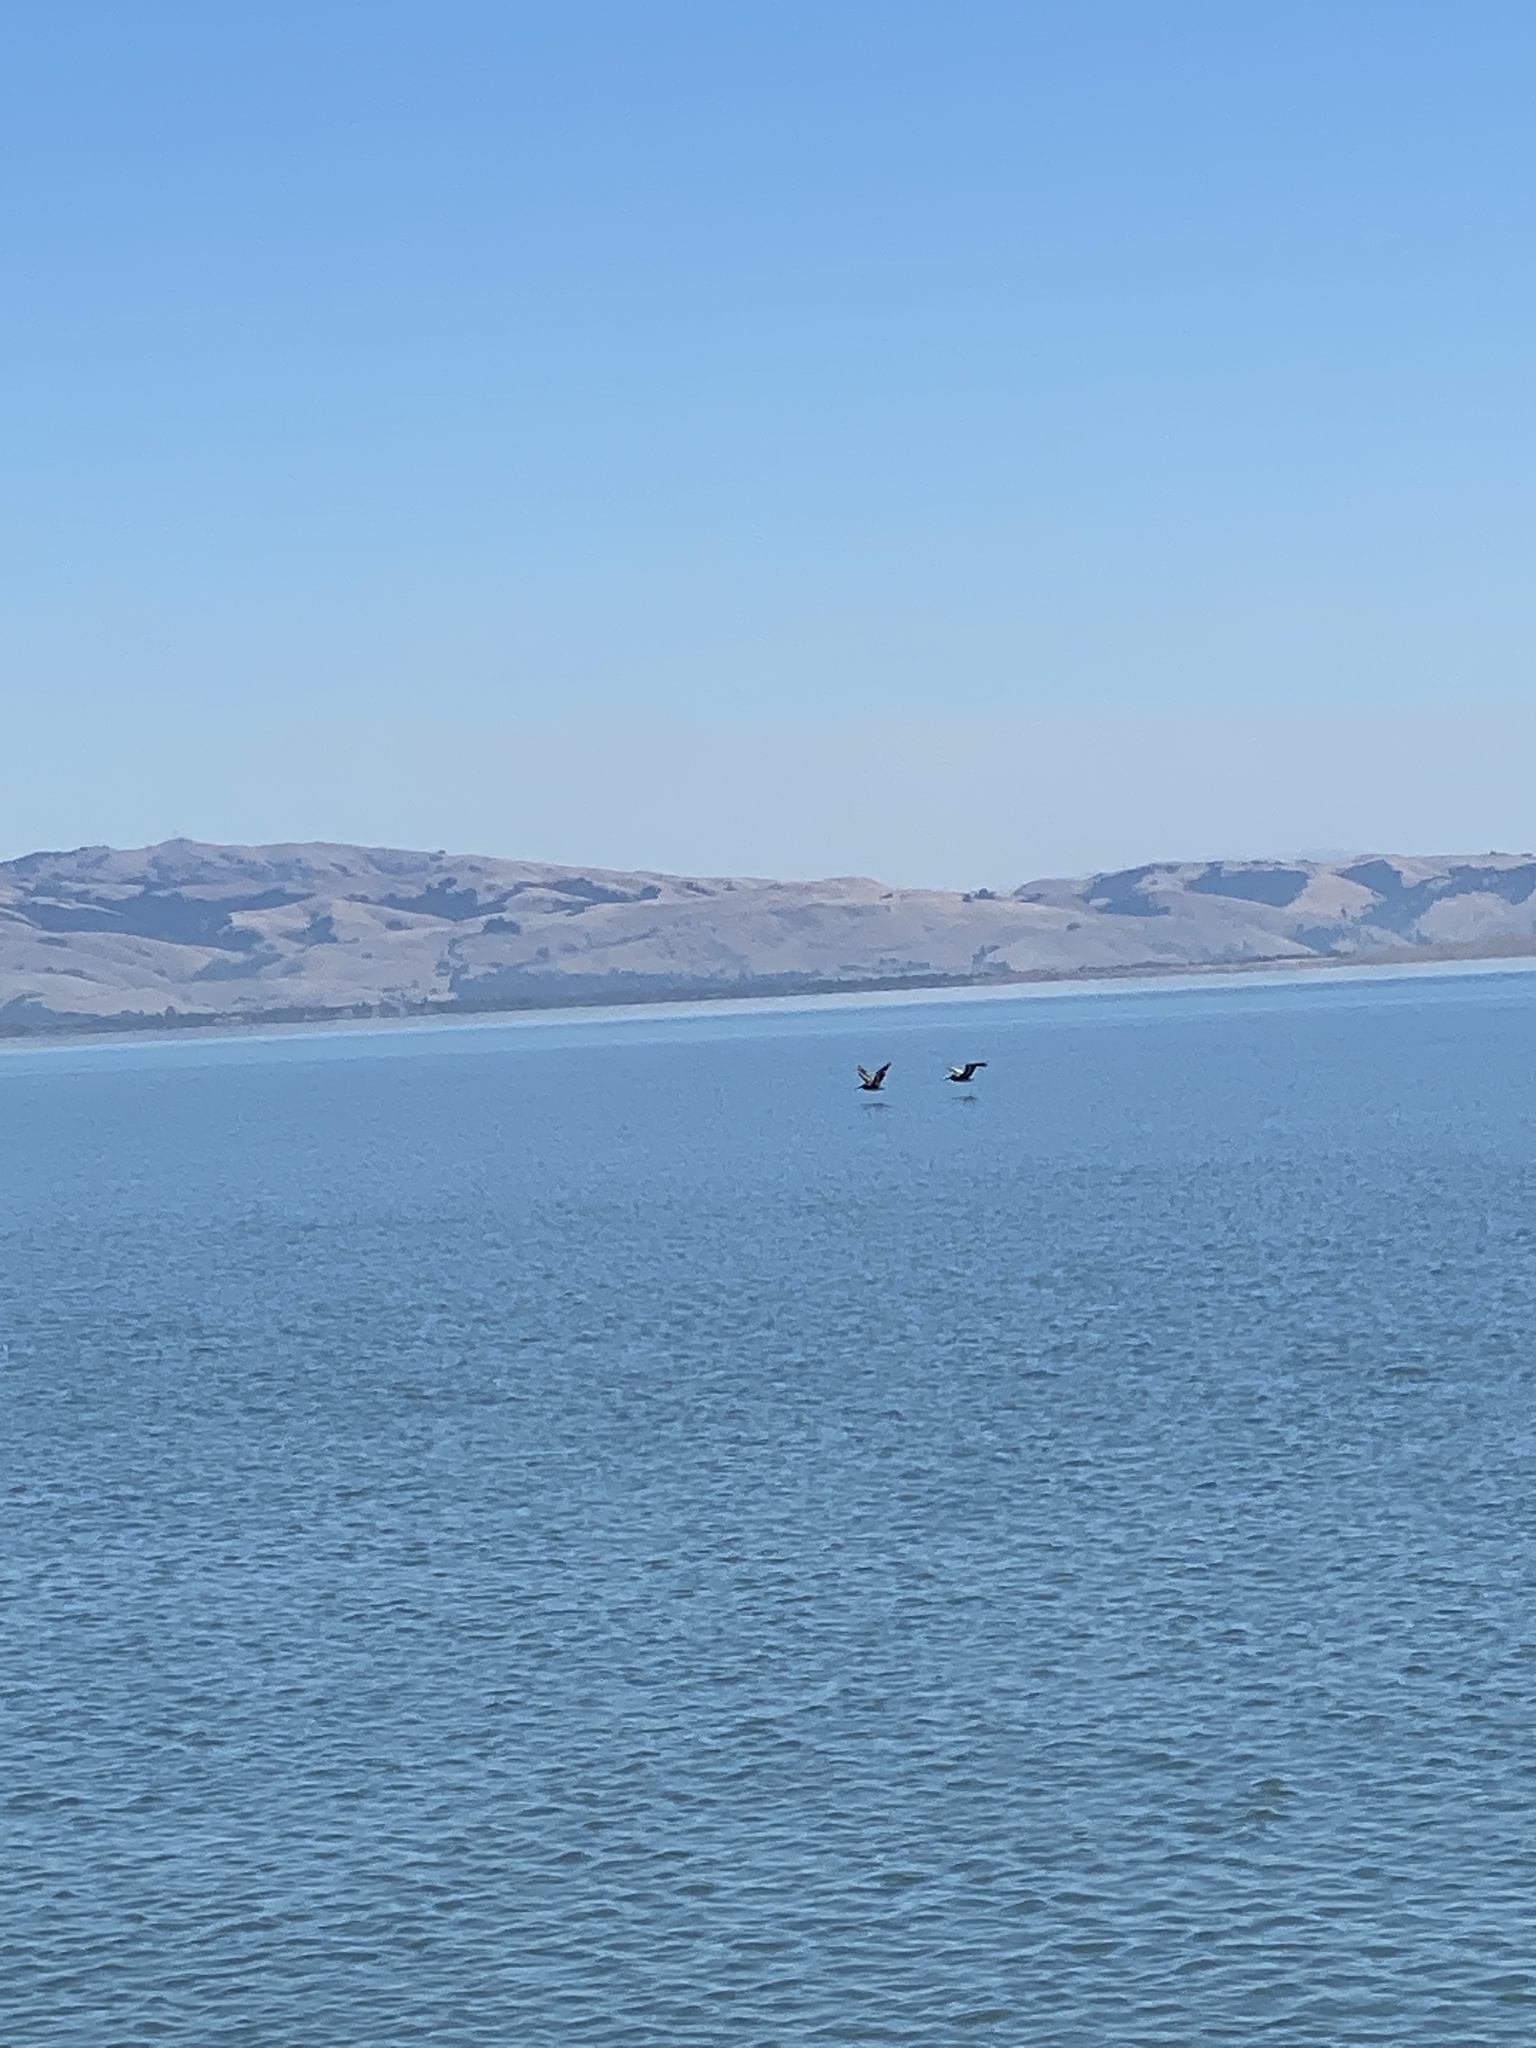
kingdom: Animalia
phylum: Chordata
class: Aves
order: Pelecaniformes
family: Pelecanidae
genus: Pelecanus
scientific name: Pelecanus occidentalis
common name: Brown pelican
